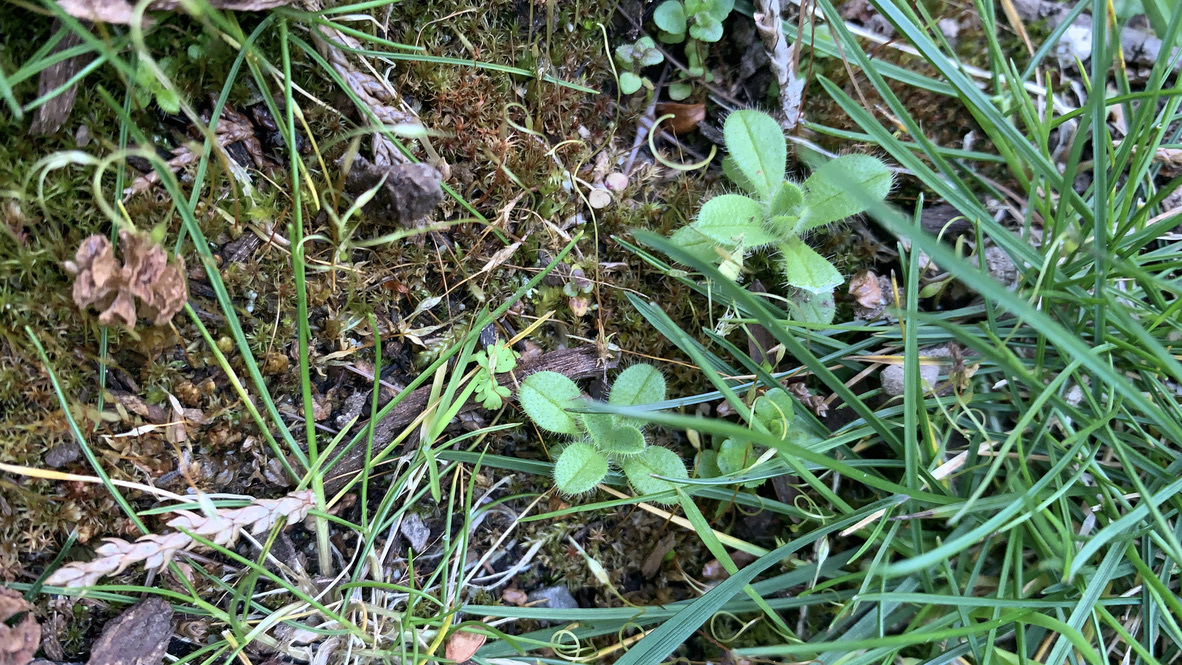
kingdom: Plantae
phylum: Tracheophyta
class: Magnoliopsida
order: Caryophyllales
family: Caryophyllaceae
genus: Cerastium
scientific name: Cerastium glomeratum
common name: Sticky chickweed
